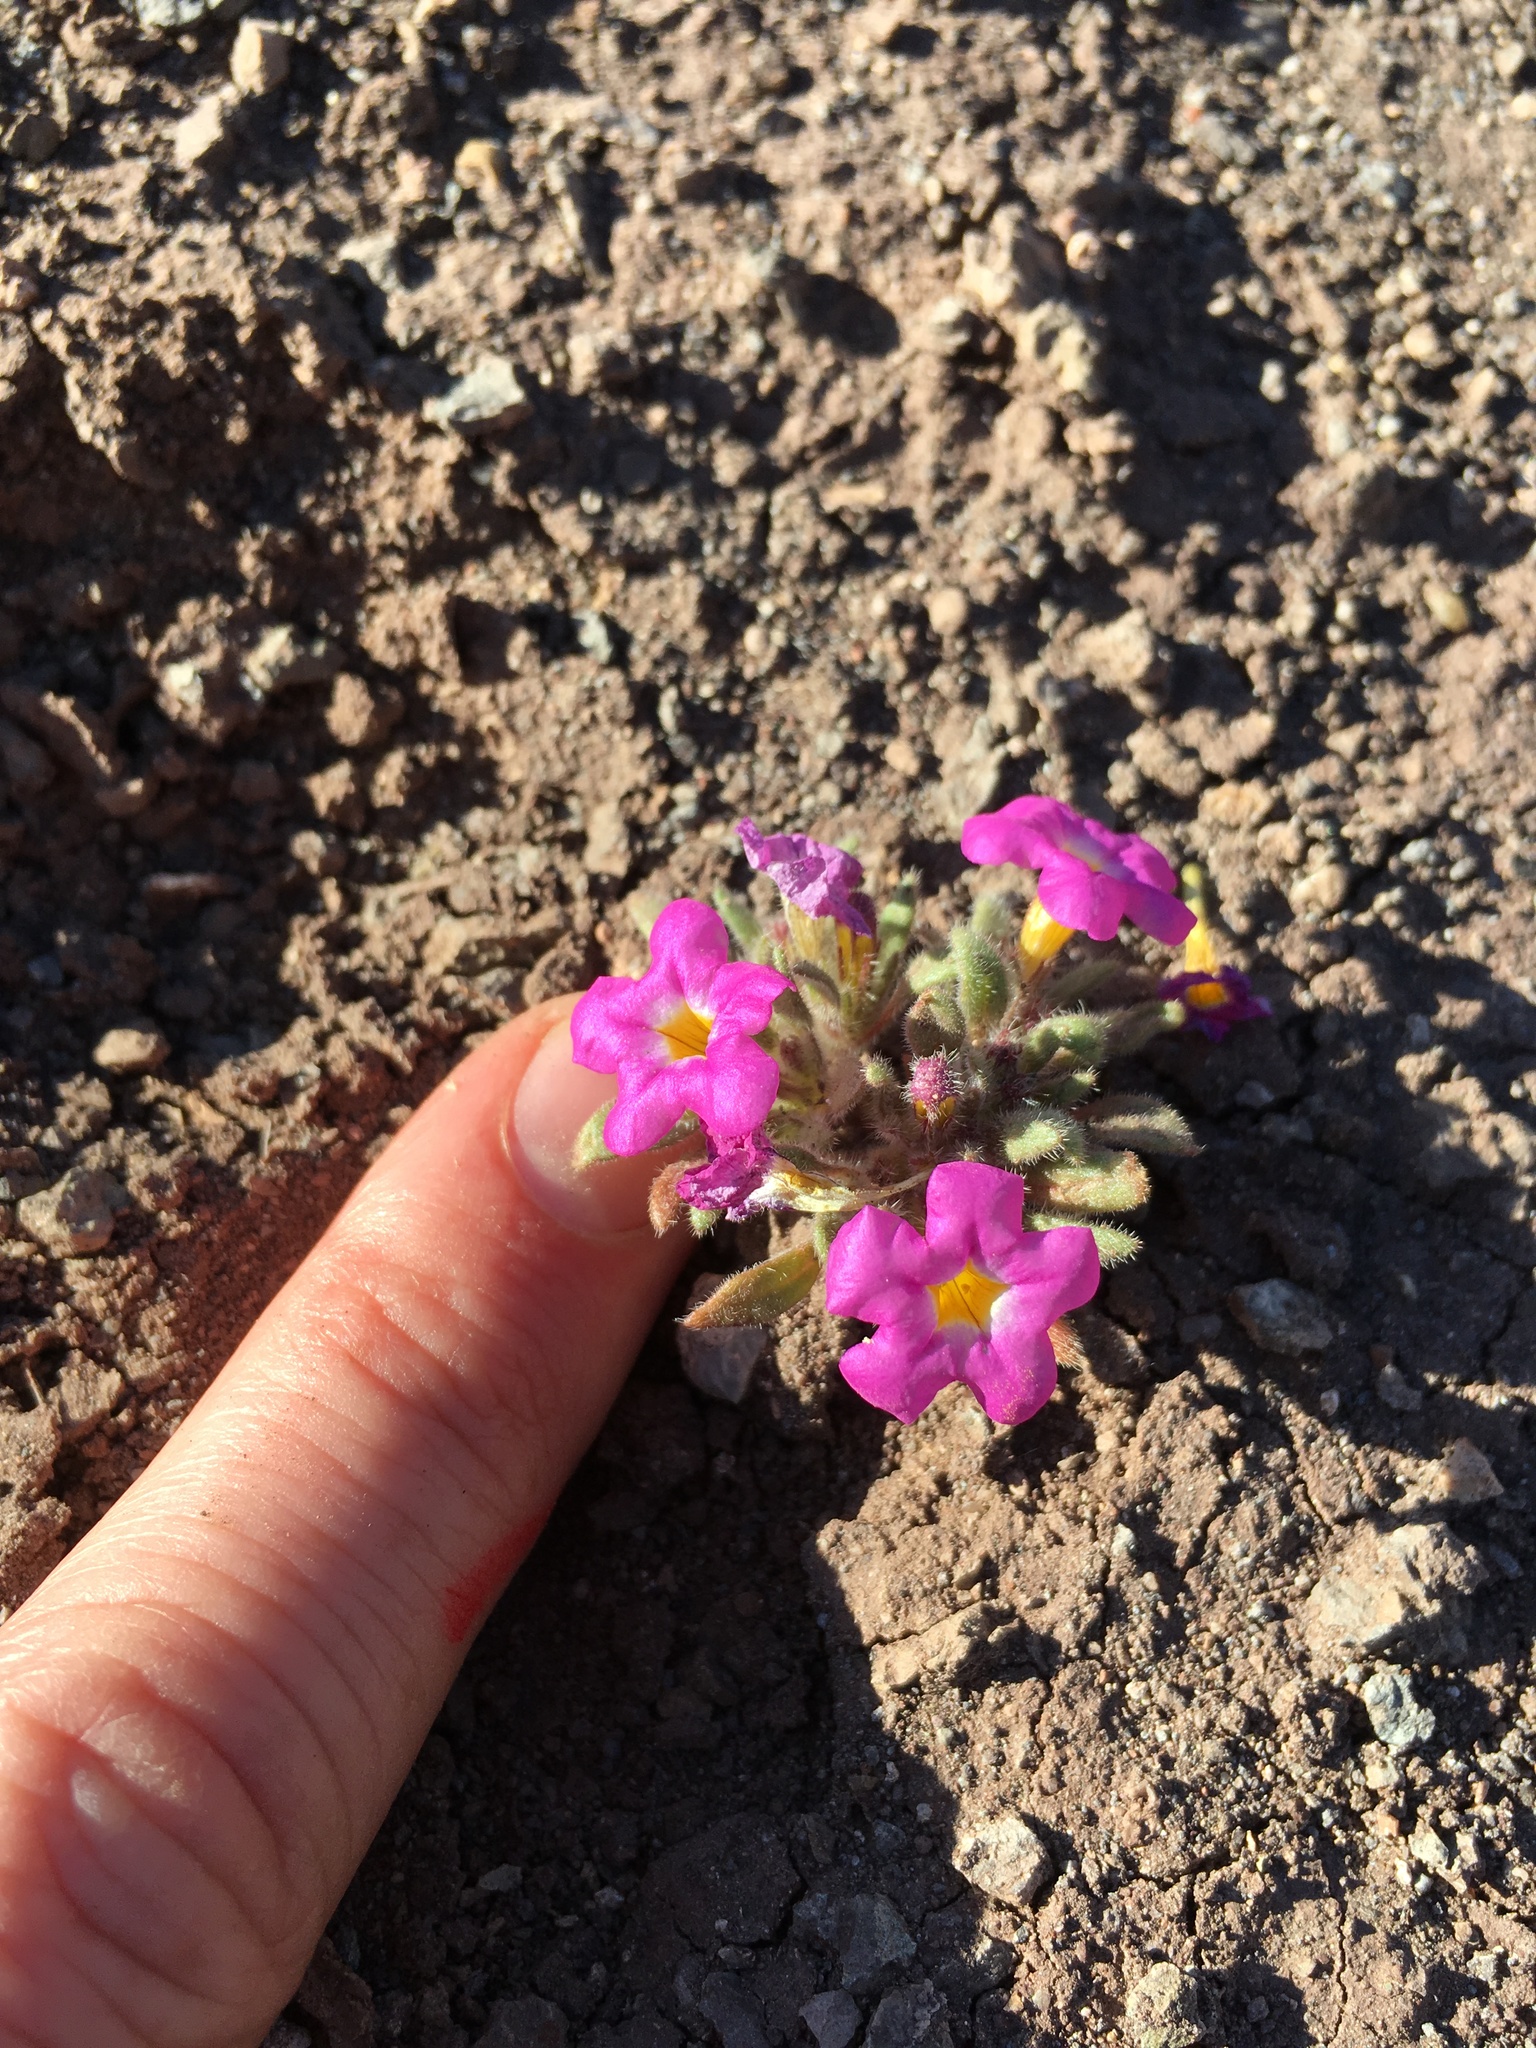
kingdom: Plantae
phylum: Tracheophyta
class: Magnoliopsida
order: Boraginales
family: Namaceae
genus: Nama
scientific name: Nama aretioides
